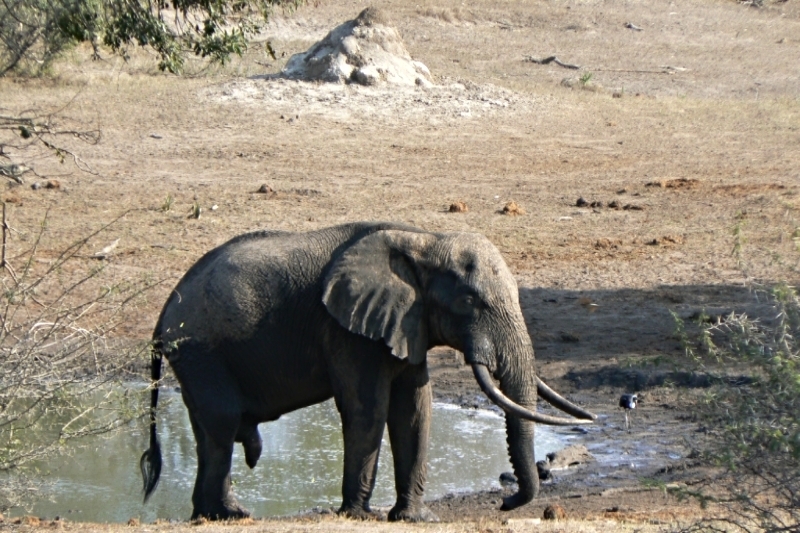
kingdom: Animalia
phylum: Chordata
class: Mammalia
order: Proboscidea
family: Elephantidae
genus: Loxodonta
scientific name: Loxodonta africana
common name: African elephant
